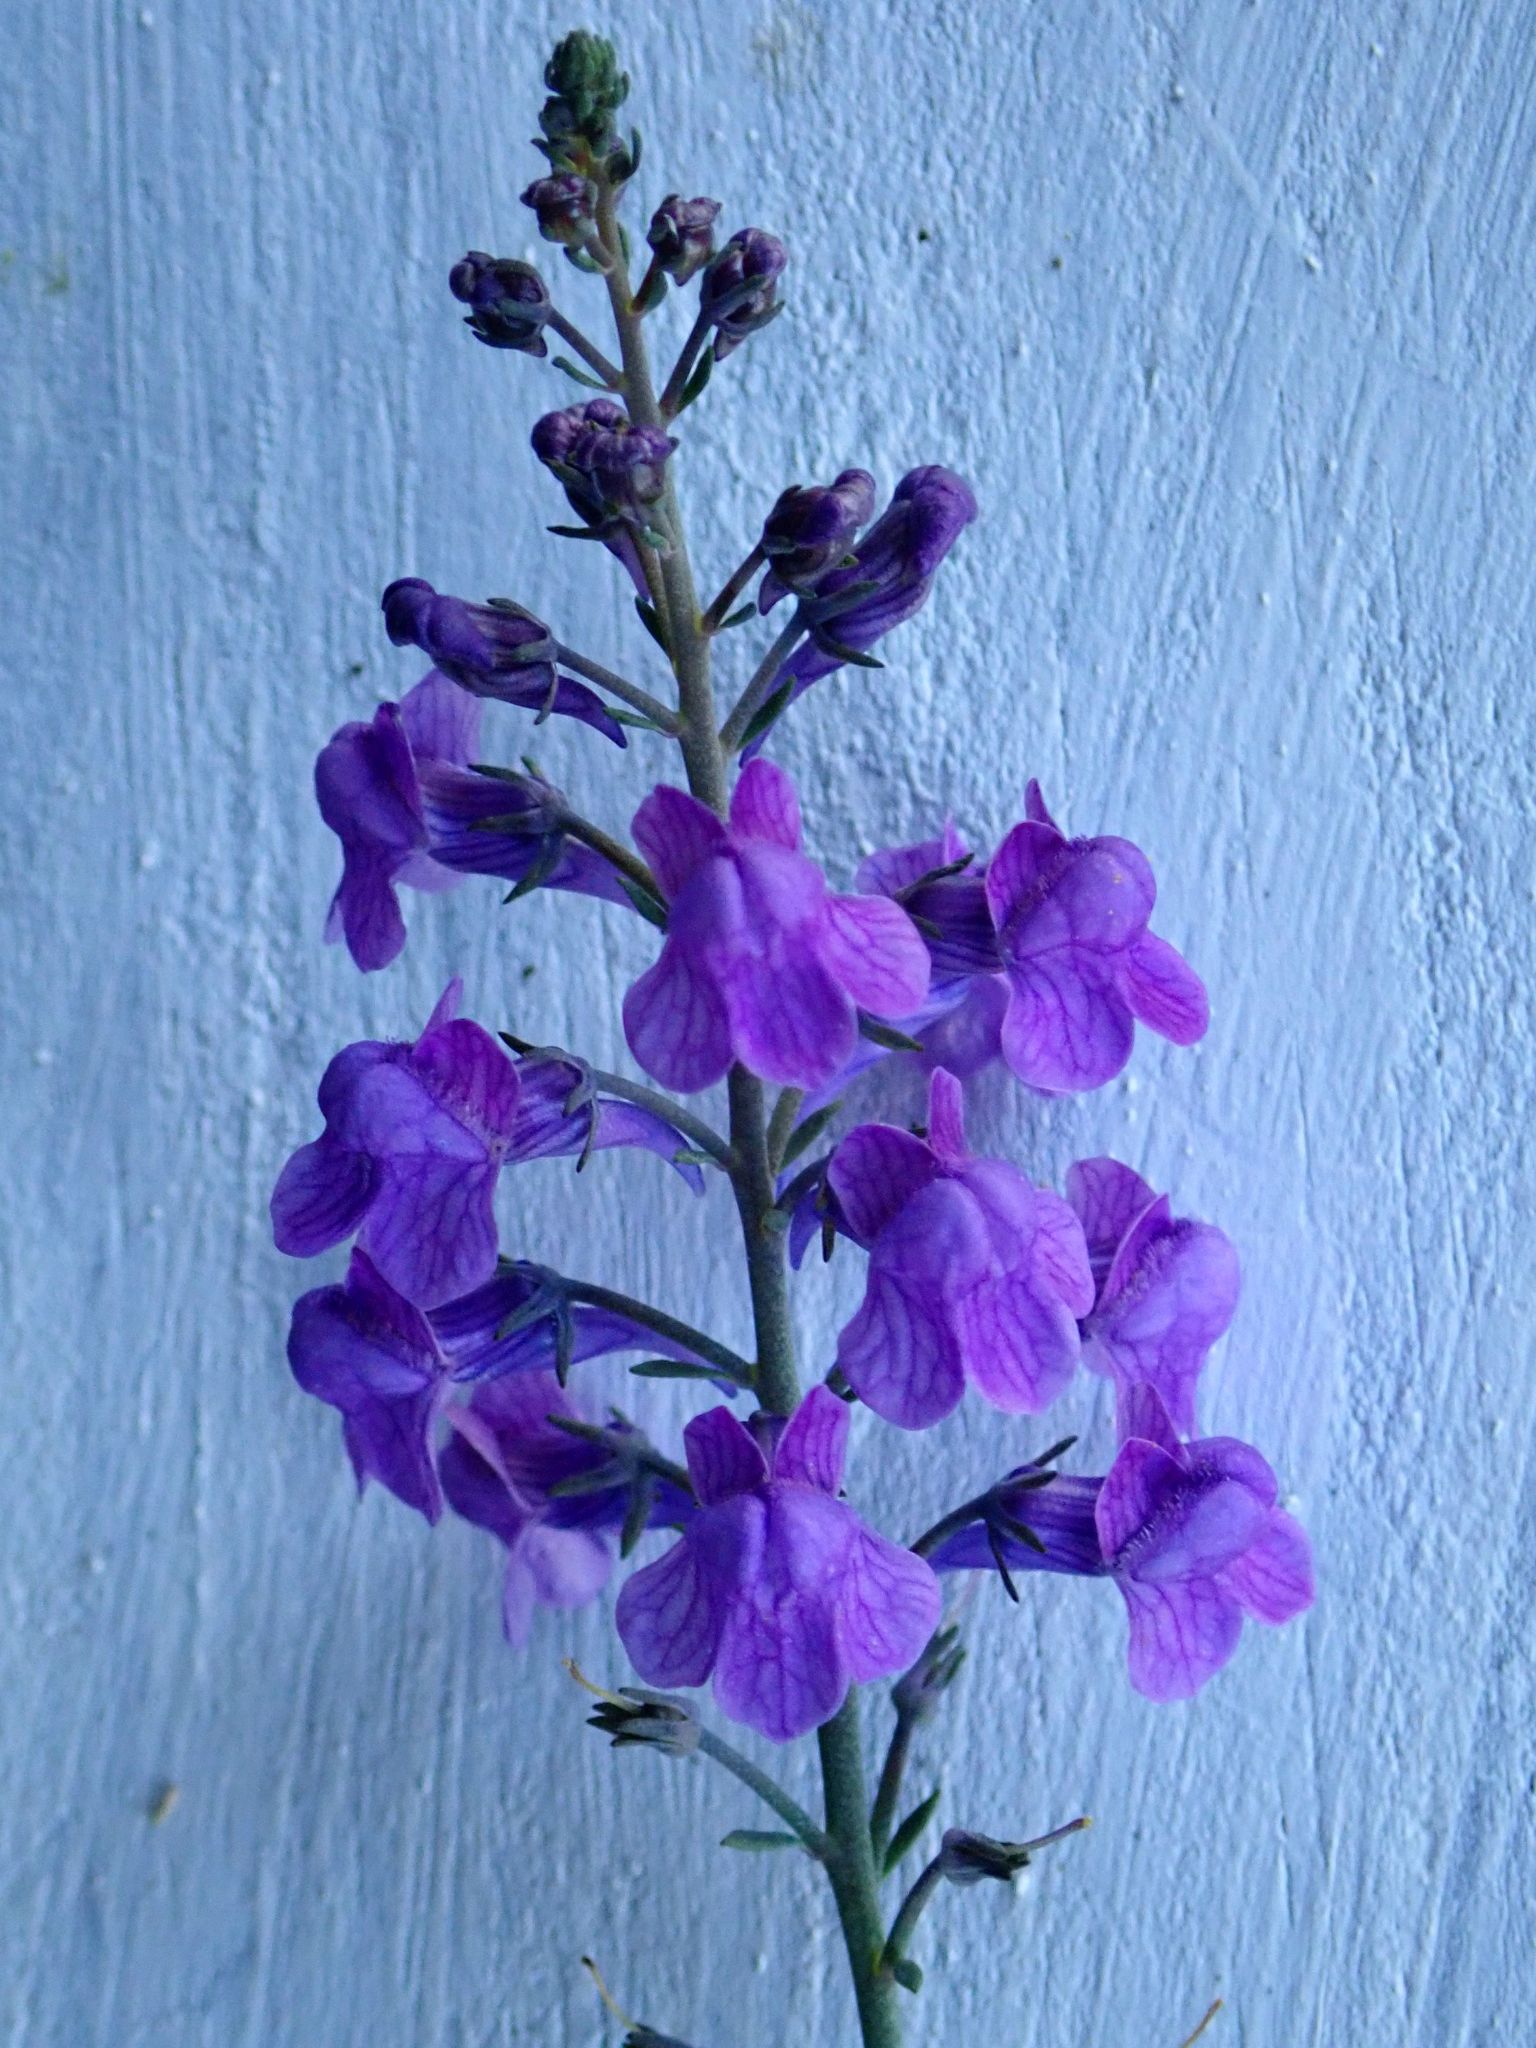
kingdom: Plantae
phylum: Tracheophyta
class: Magnoliopsida
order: Lamiales
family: Plantaginaceae
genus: Linaria
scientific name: Linaria purpurea
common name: Purple toadflax
